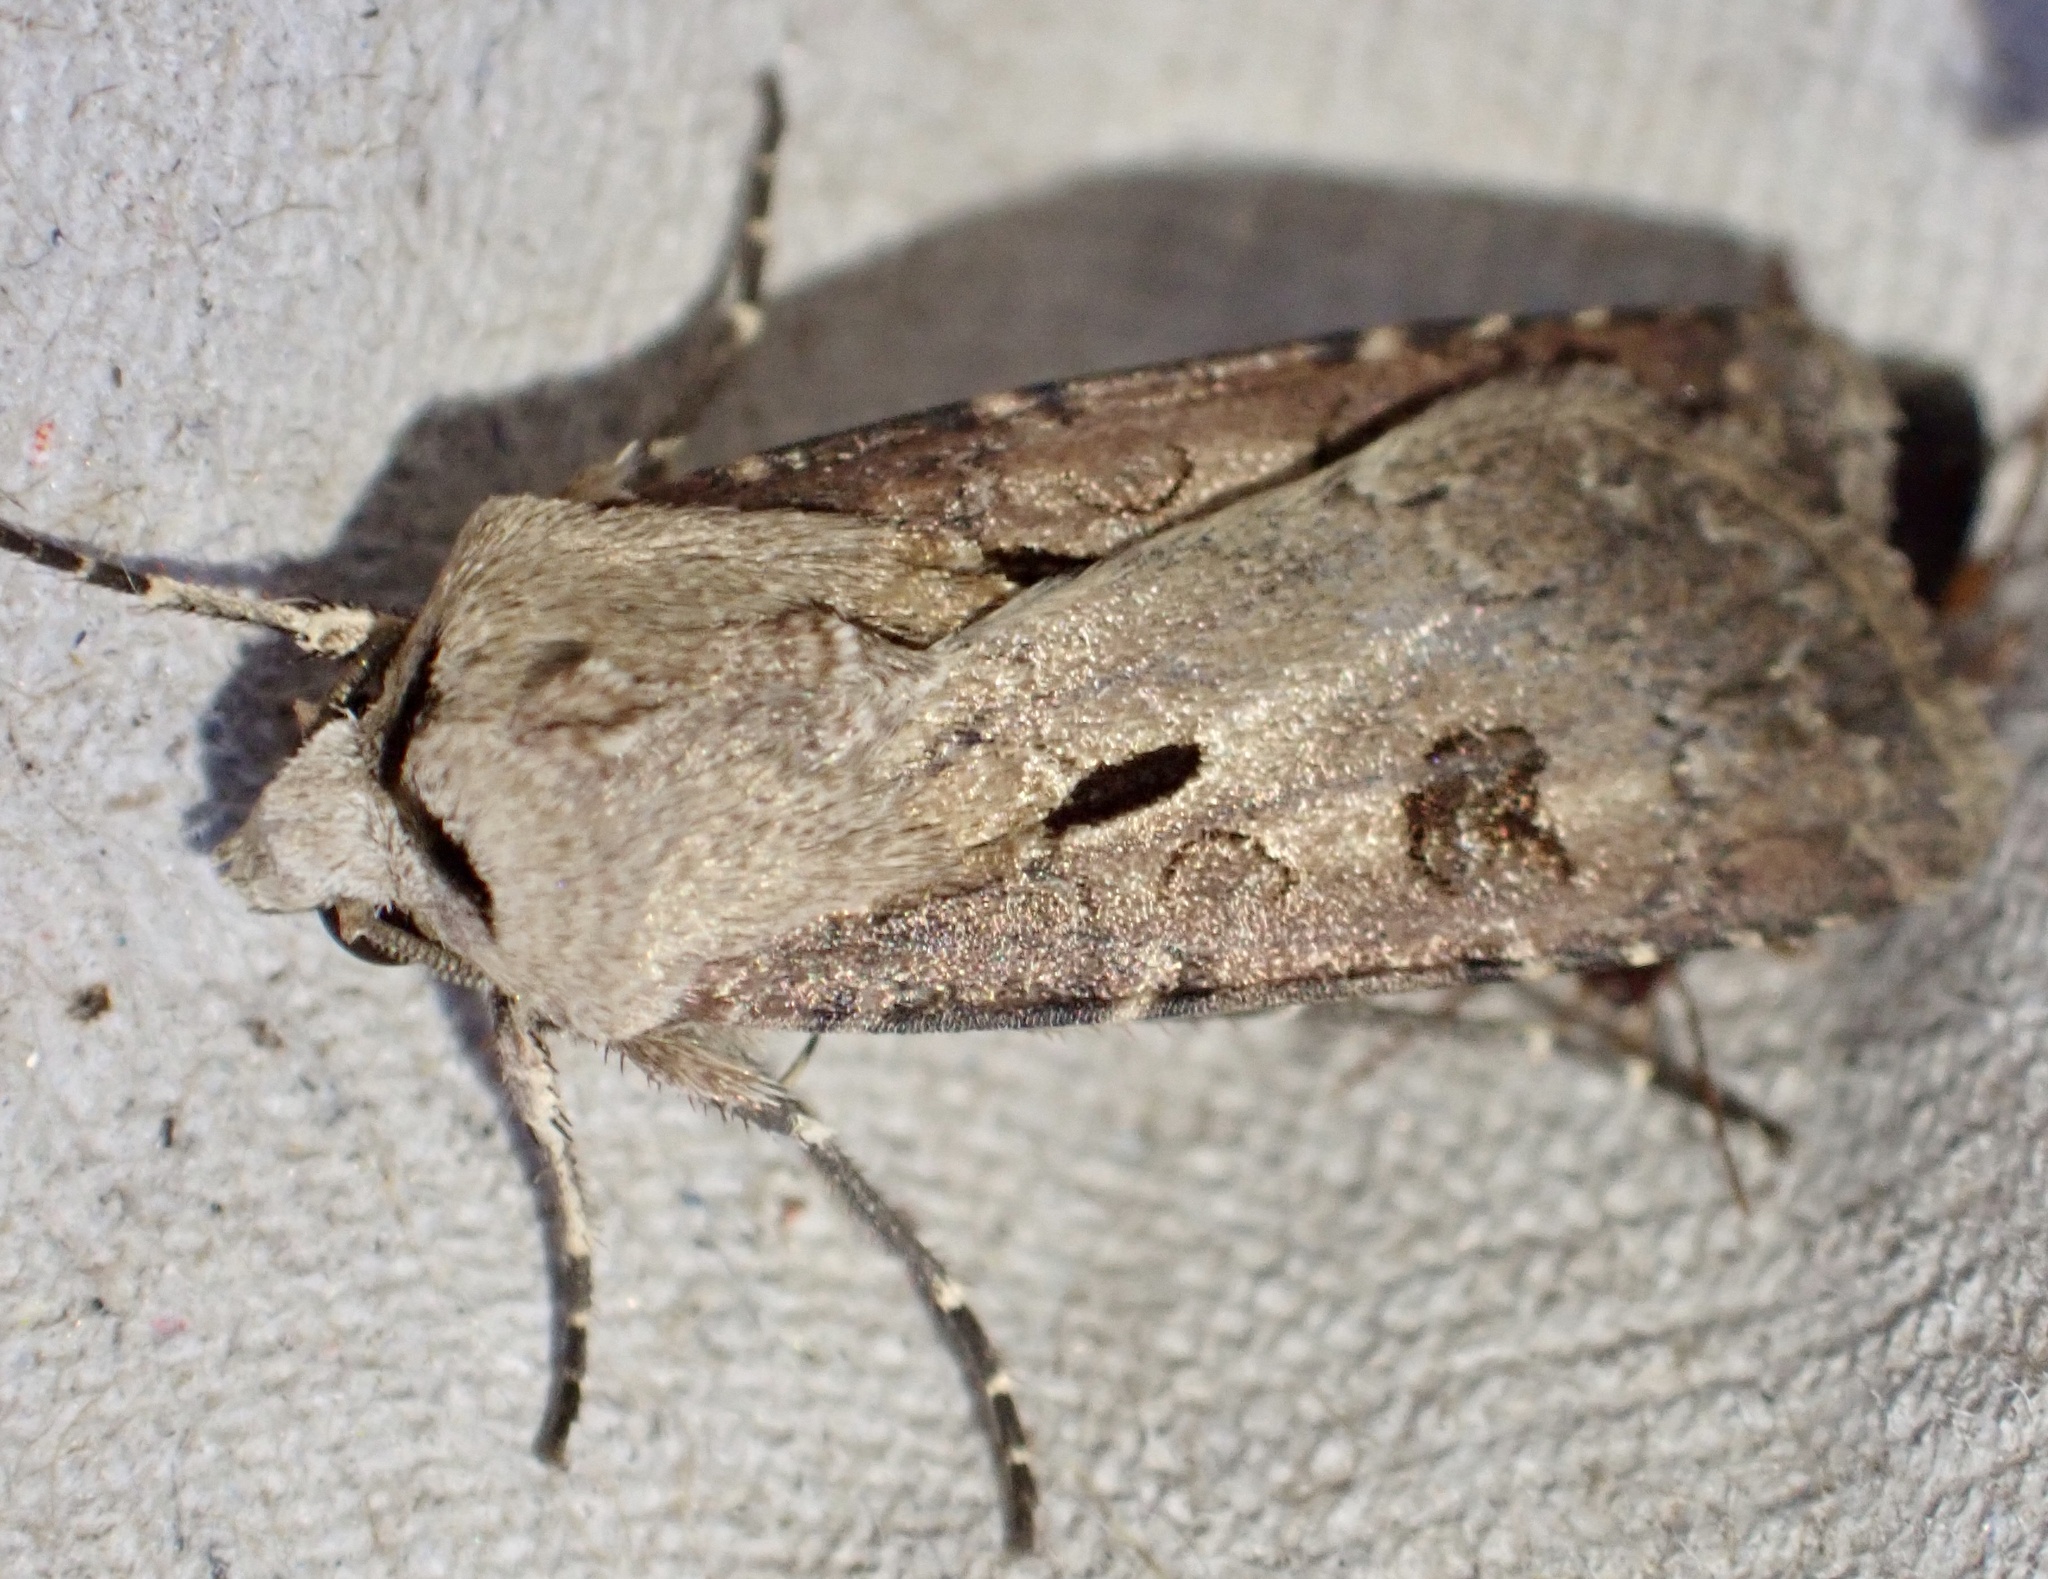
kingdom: Animalia
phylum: Arthropoda
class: Insecta
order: Lepidoptera
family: Noctuidae
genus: Agrotis
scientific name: Agrotis exclamationis
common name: Heart and dart
